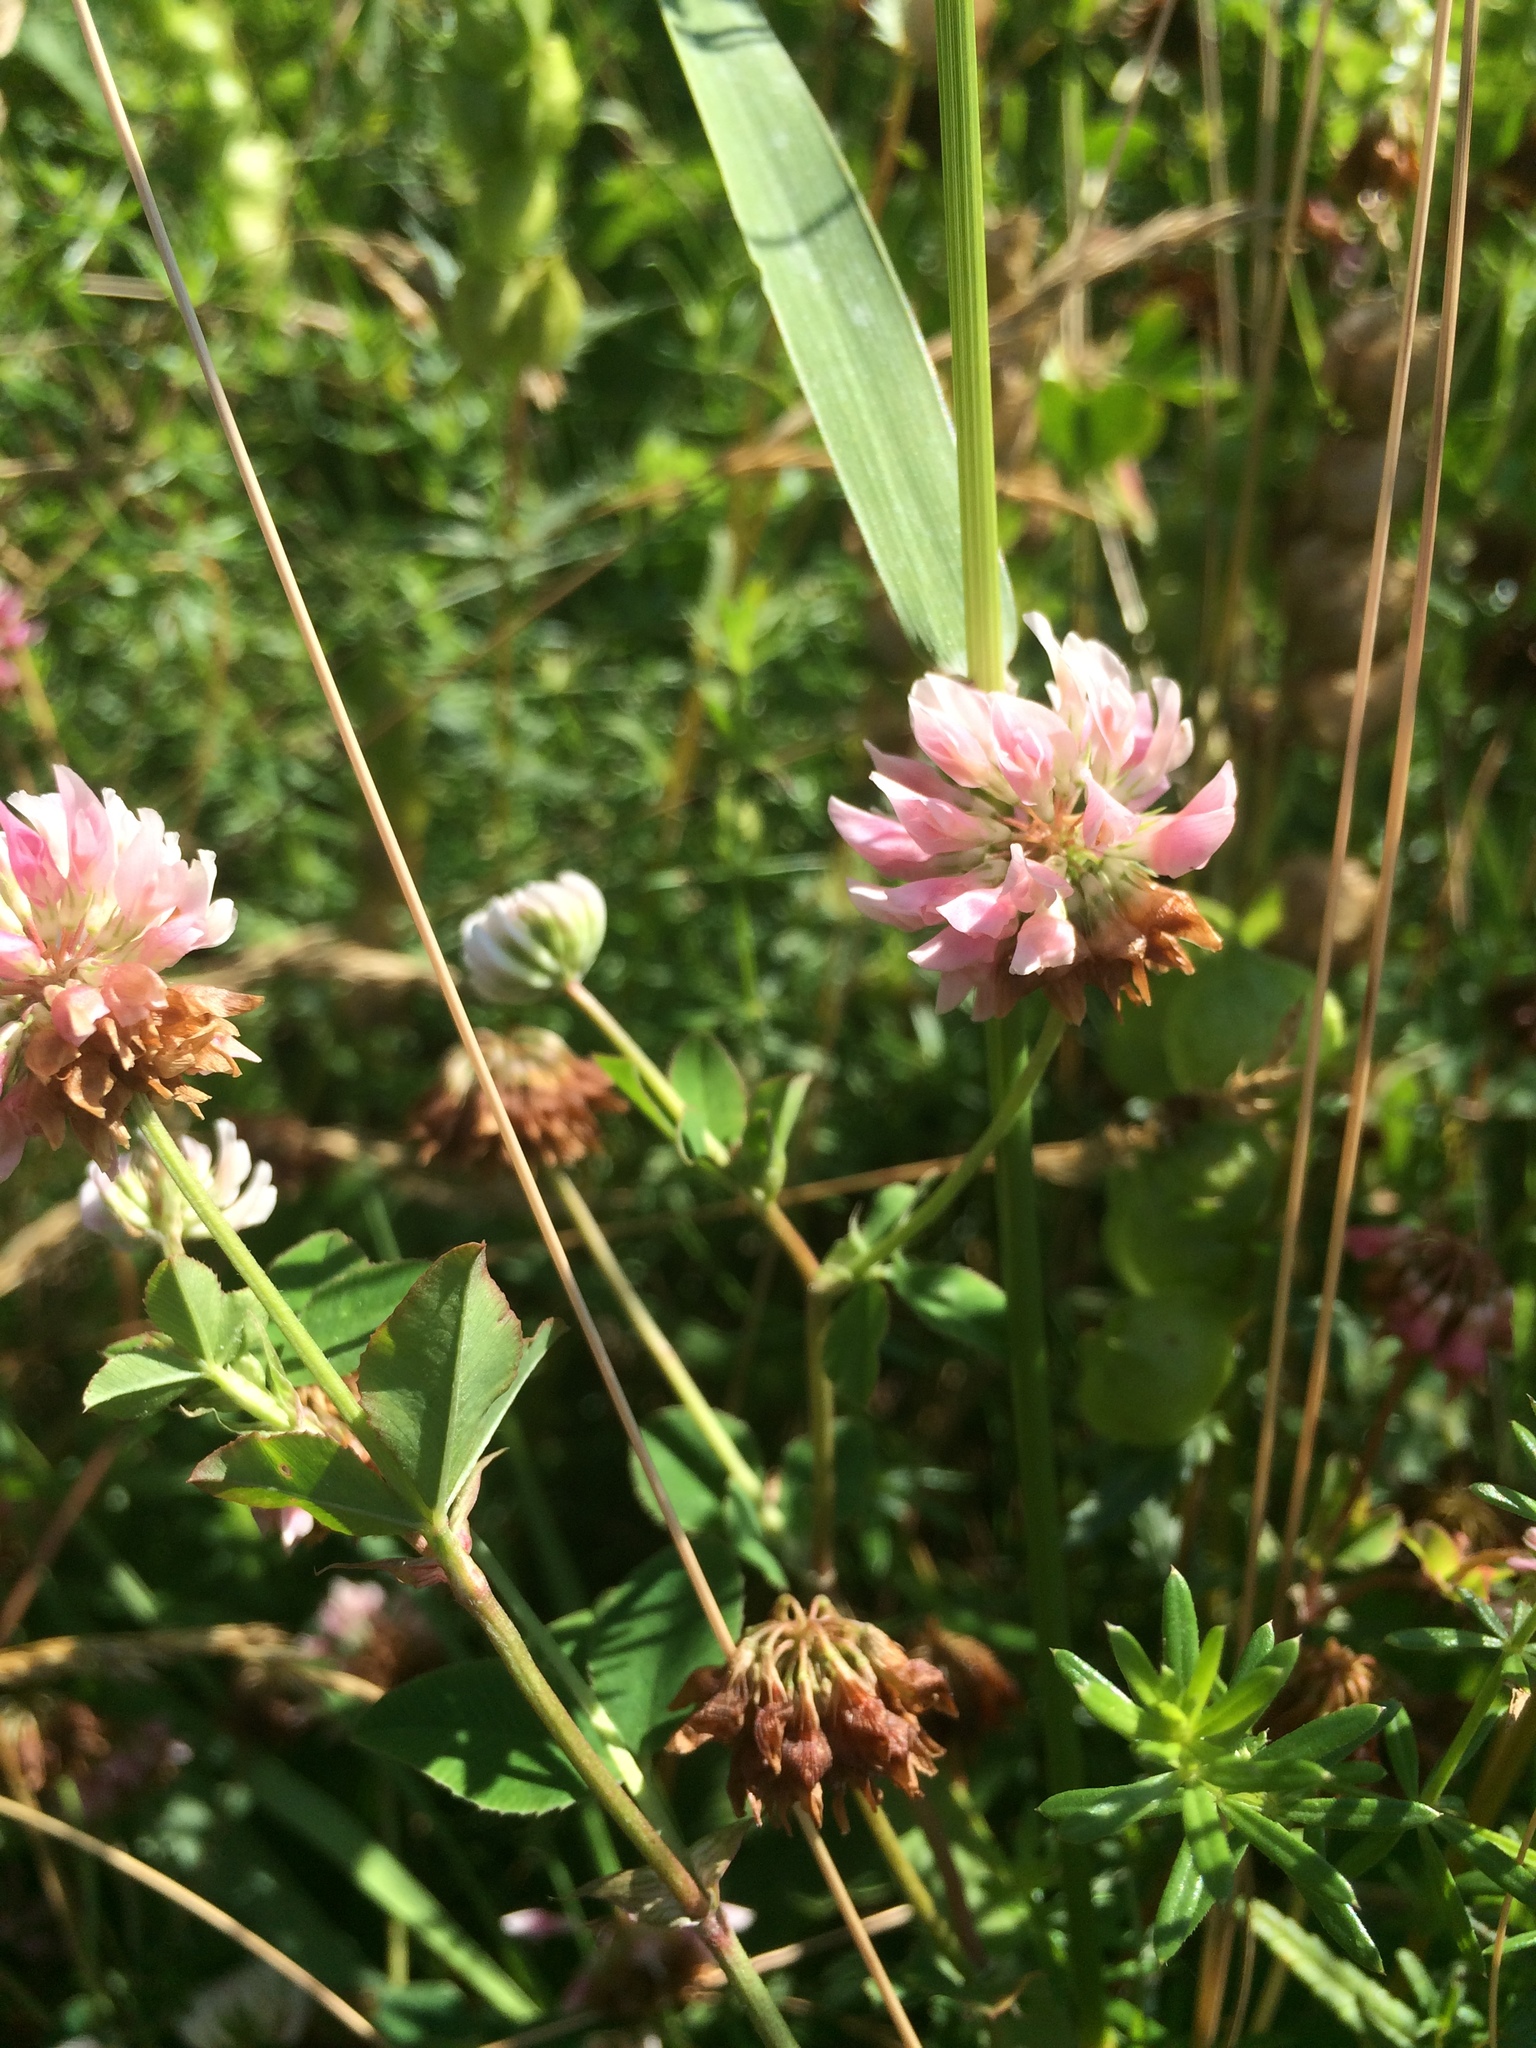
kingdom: Plantae
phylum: Tracheophyta
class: Magnoliopsida
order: Fabales
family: Fabaceae
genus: Trifolium
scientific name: Trifolium hybridum
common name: Alsike clover
